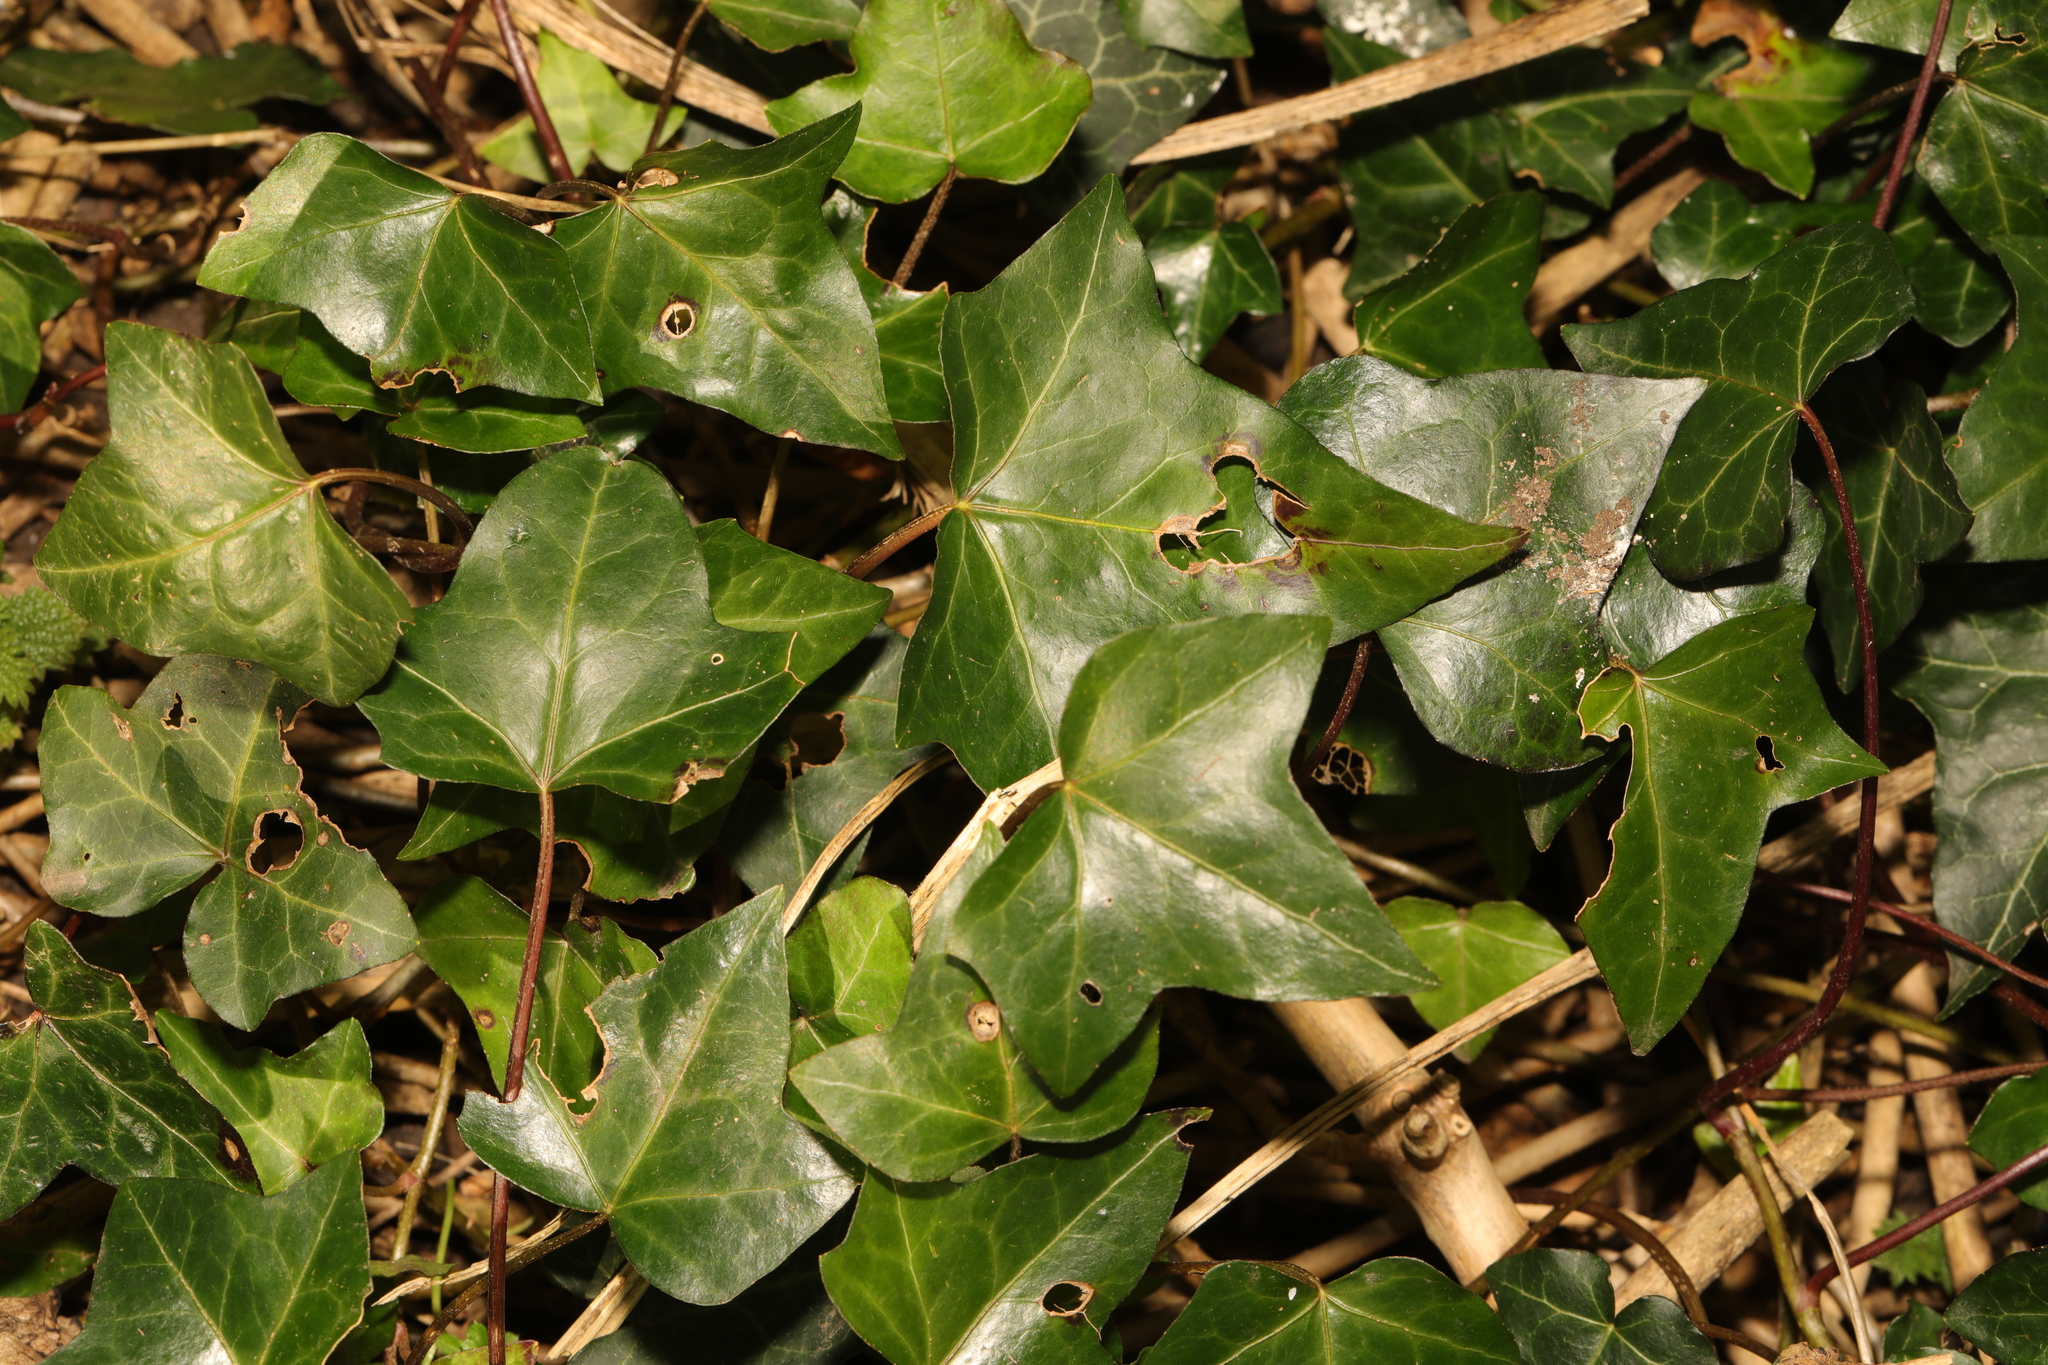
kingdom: Plantae
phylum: Tracheophyta
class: Magnoliopsida
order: Apiales
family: Araliaceae
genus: Hedera
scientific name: Hedera helix
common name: Ivy
